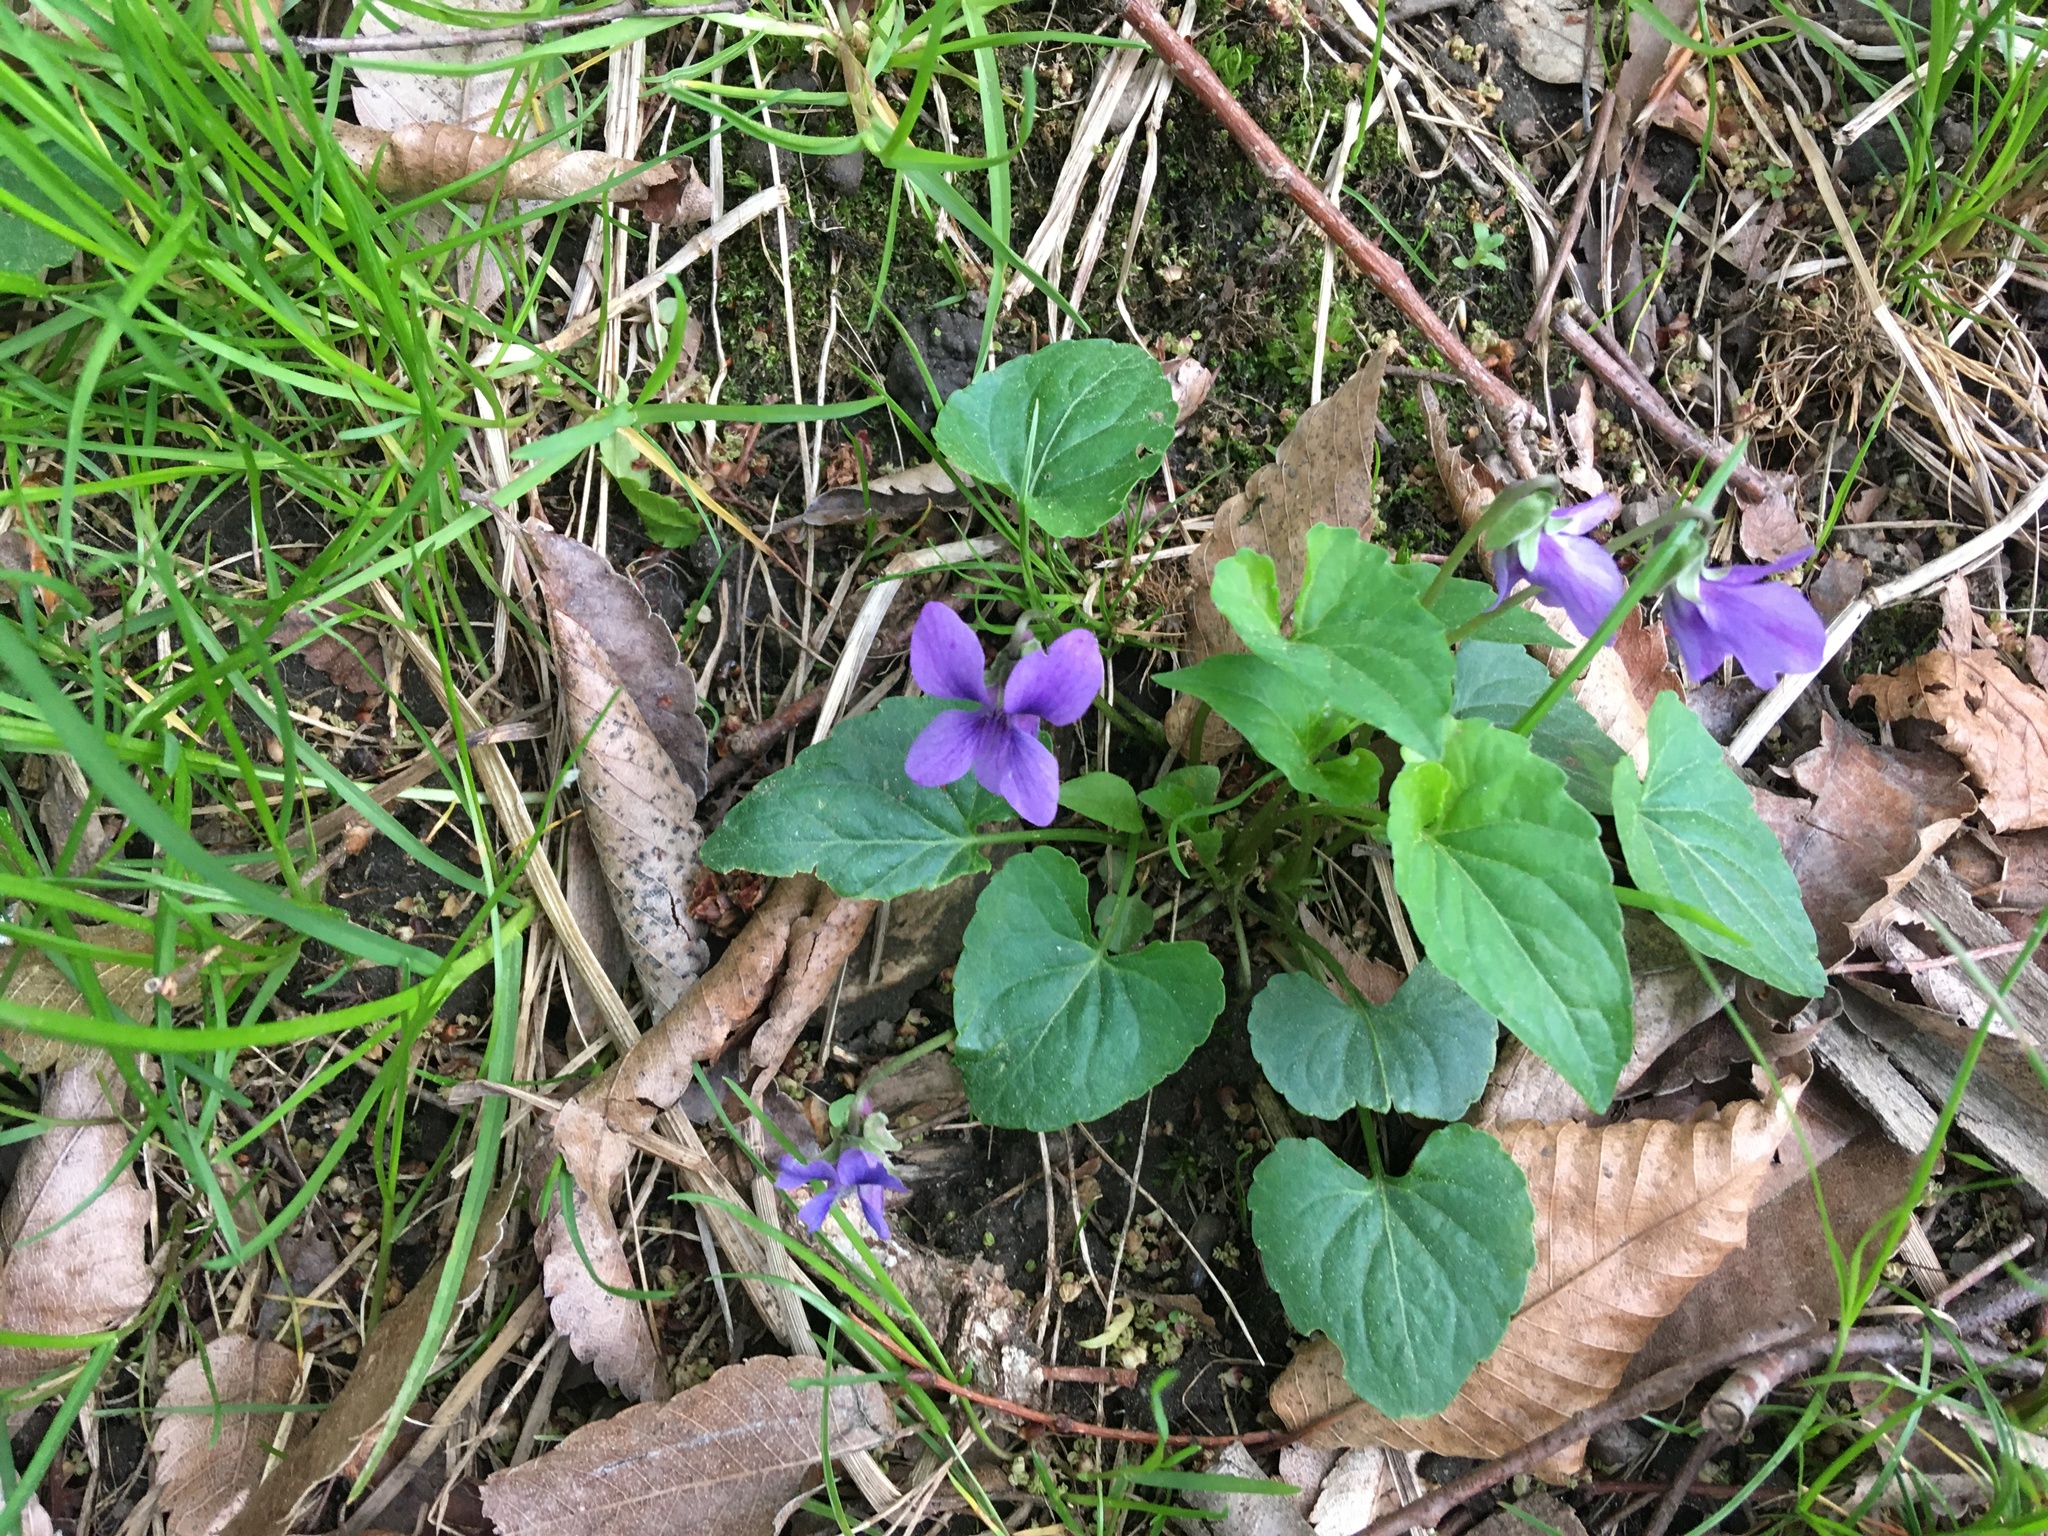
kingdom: Plantae
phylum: Tracheophyta
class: Magnoliopsida
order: Malpighiales
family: Violaceae
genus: Viola
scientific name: Viola sororia
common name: Dooryard violet
